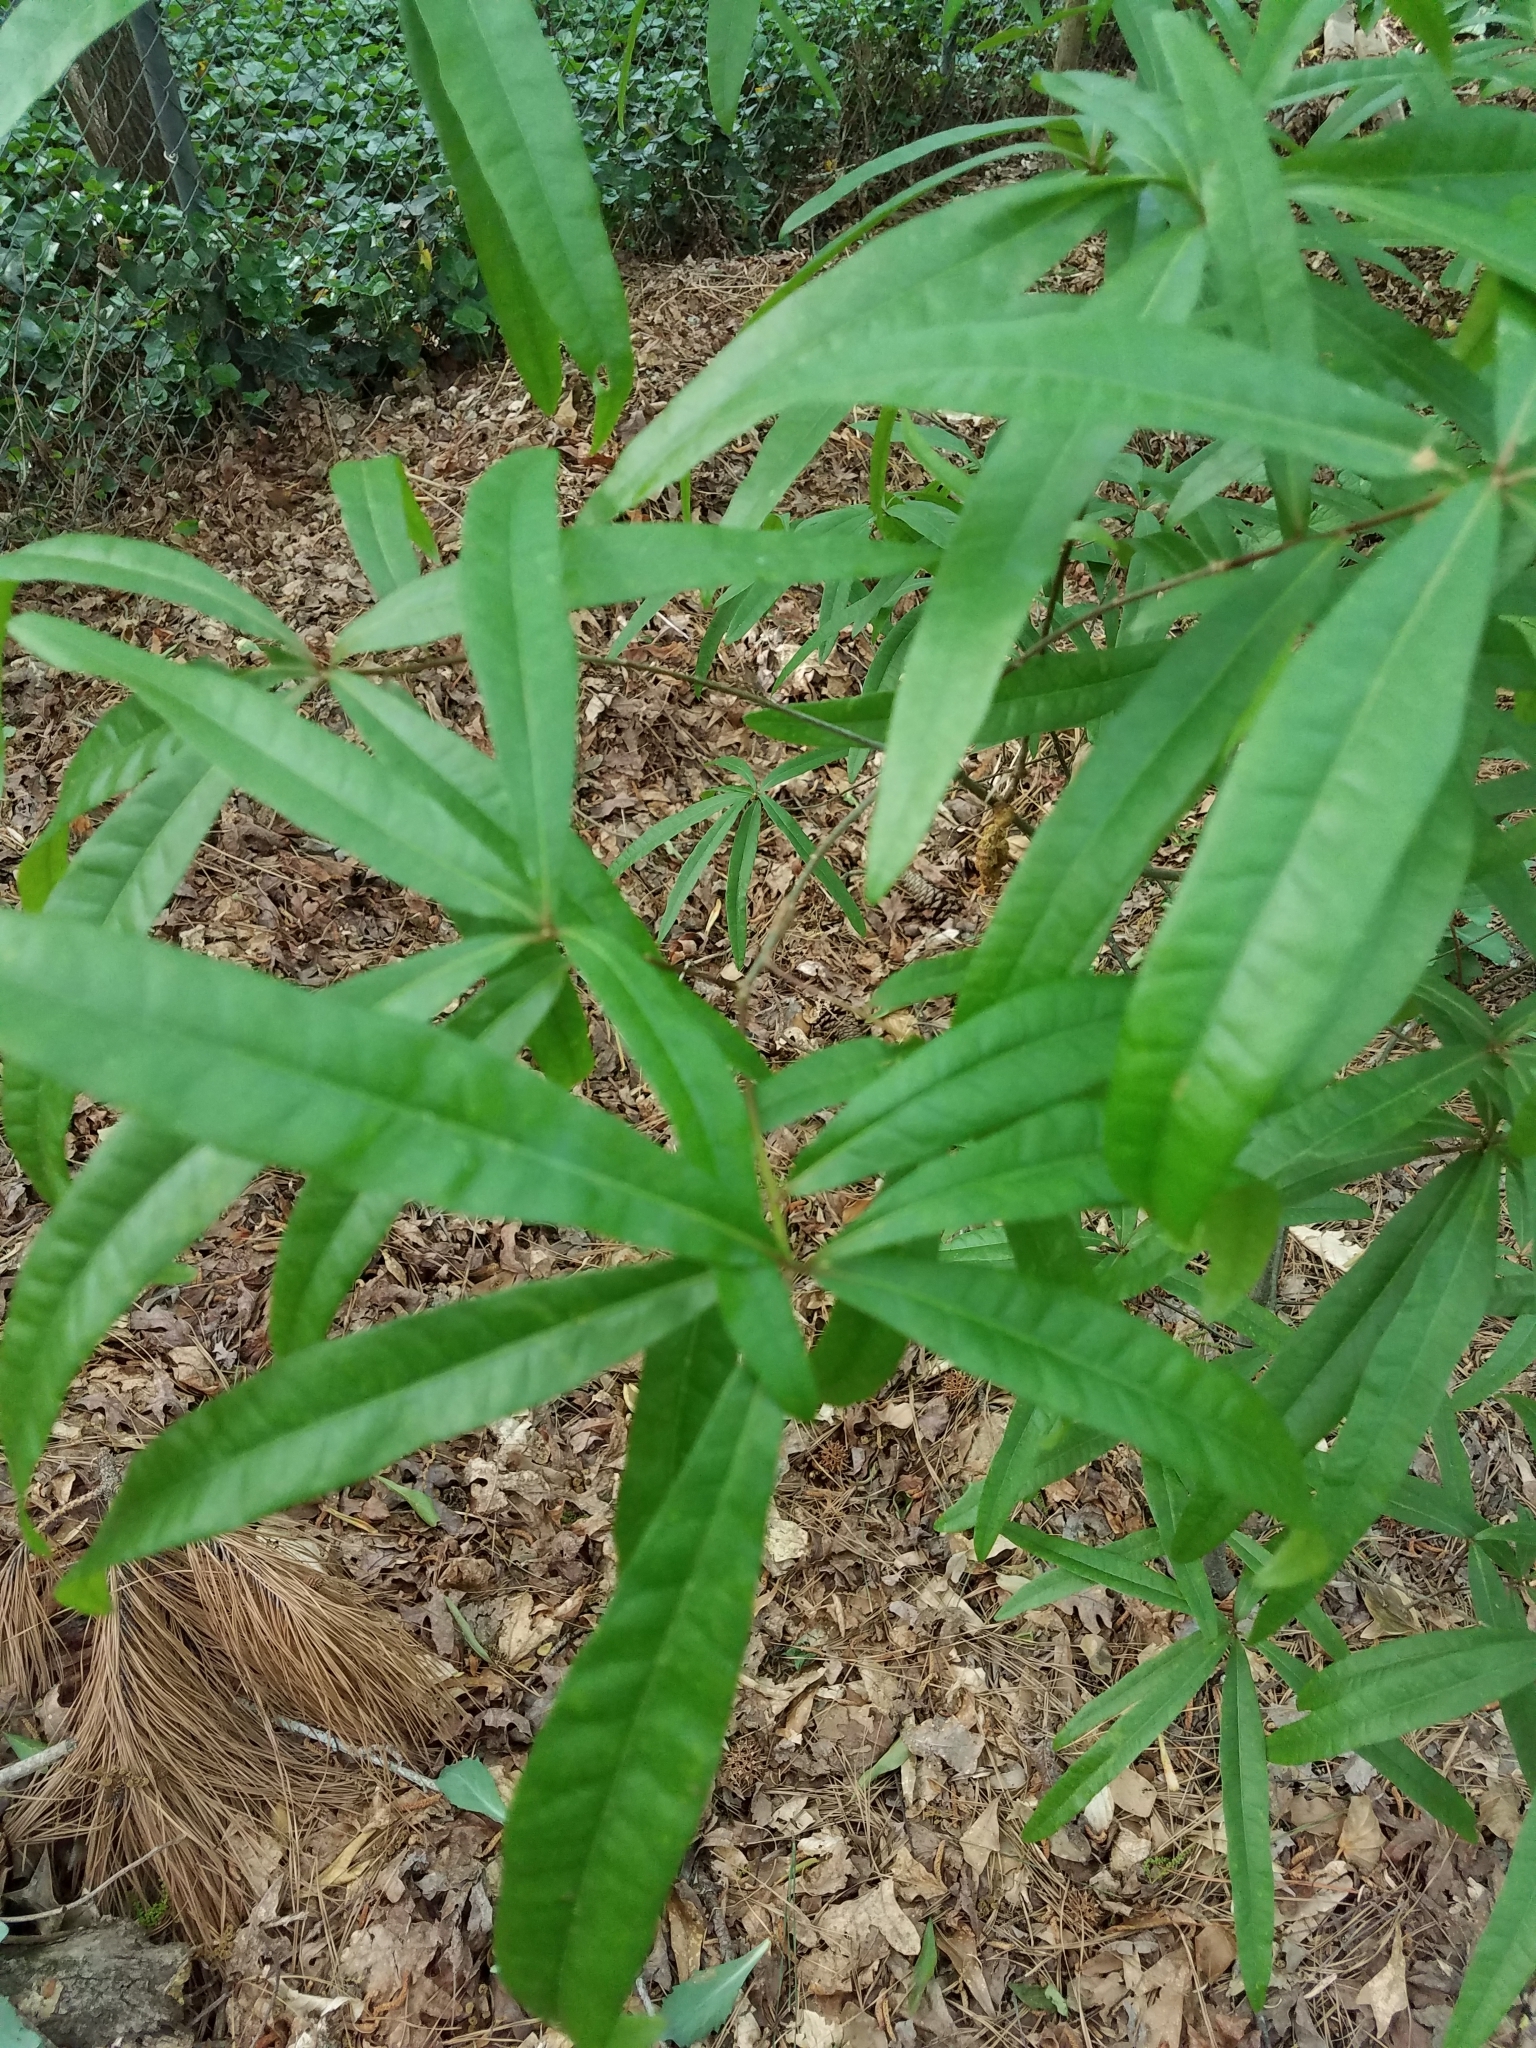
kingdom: Plantae
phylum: Tracheophyta
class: Magnoliopsida
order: Fagales
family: Fagaceae
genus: Quercus
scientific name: Quercus phellos
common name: Willow oak
